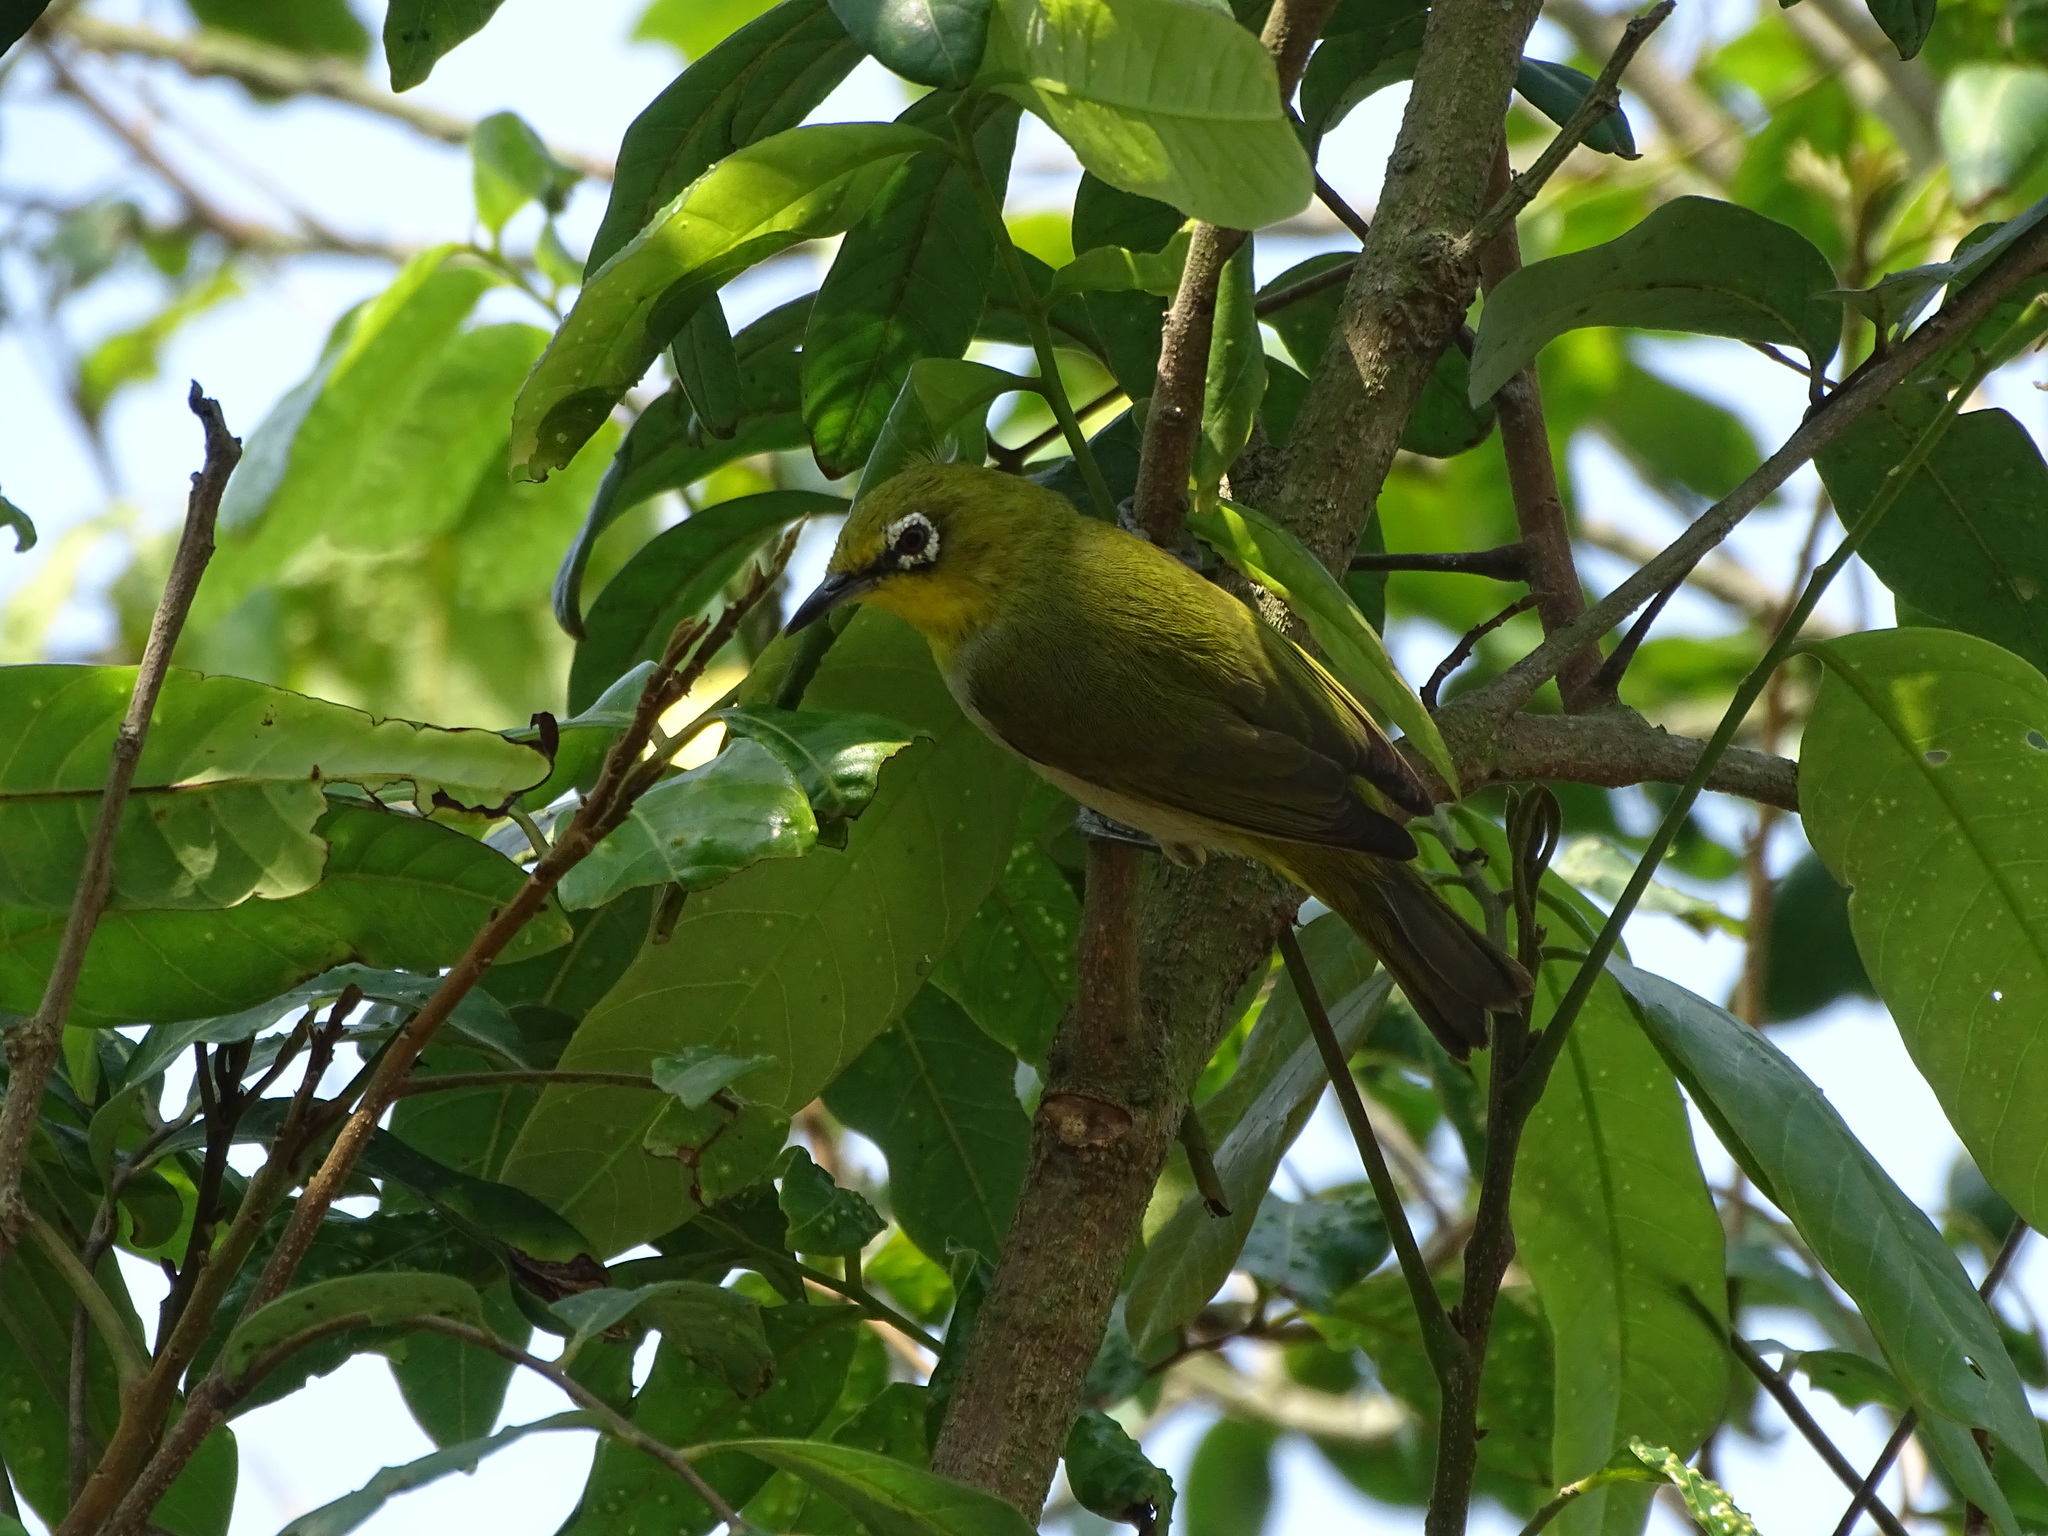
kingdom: Animalia
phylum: Chordata
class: Aves
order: Passeriformes
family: Zosteropidae
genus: Zosterops
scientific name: Zosterops simplex
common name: Swinhoe's white-eye
